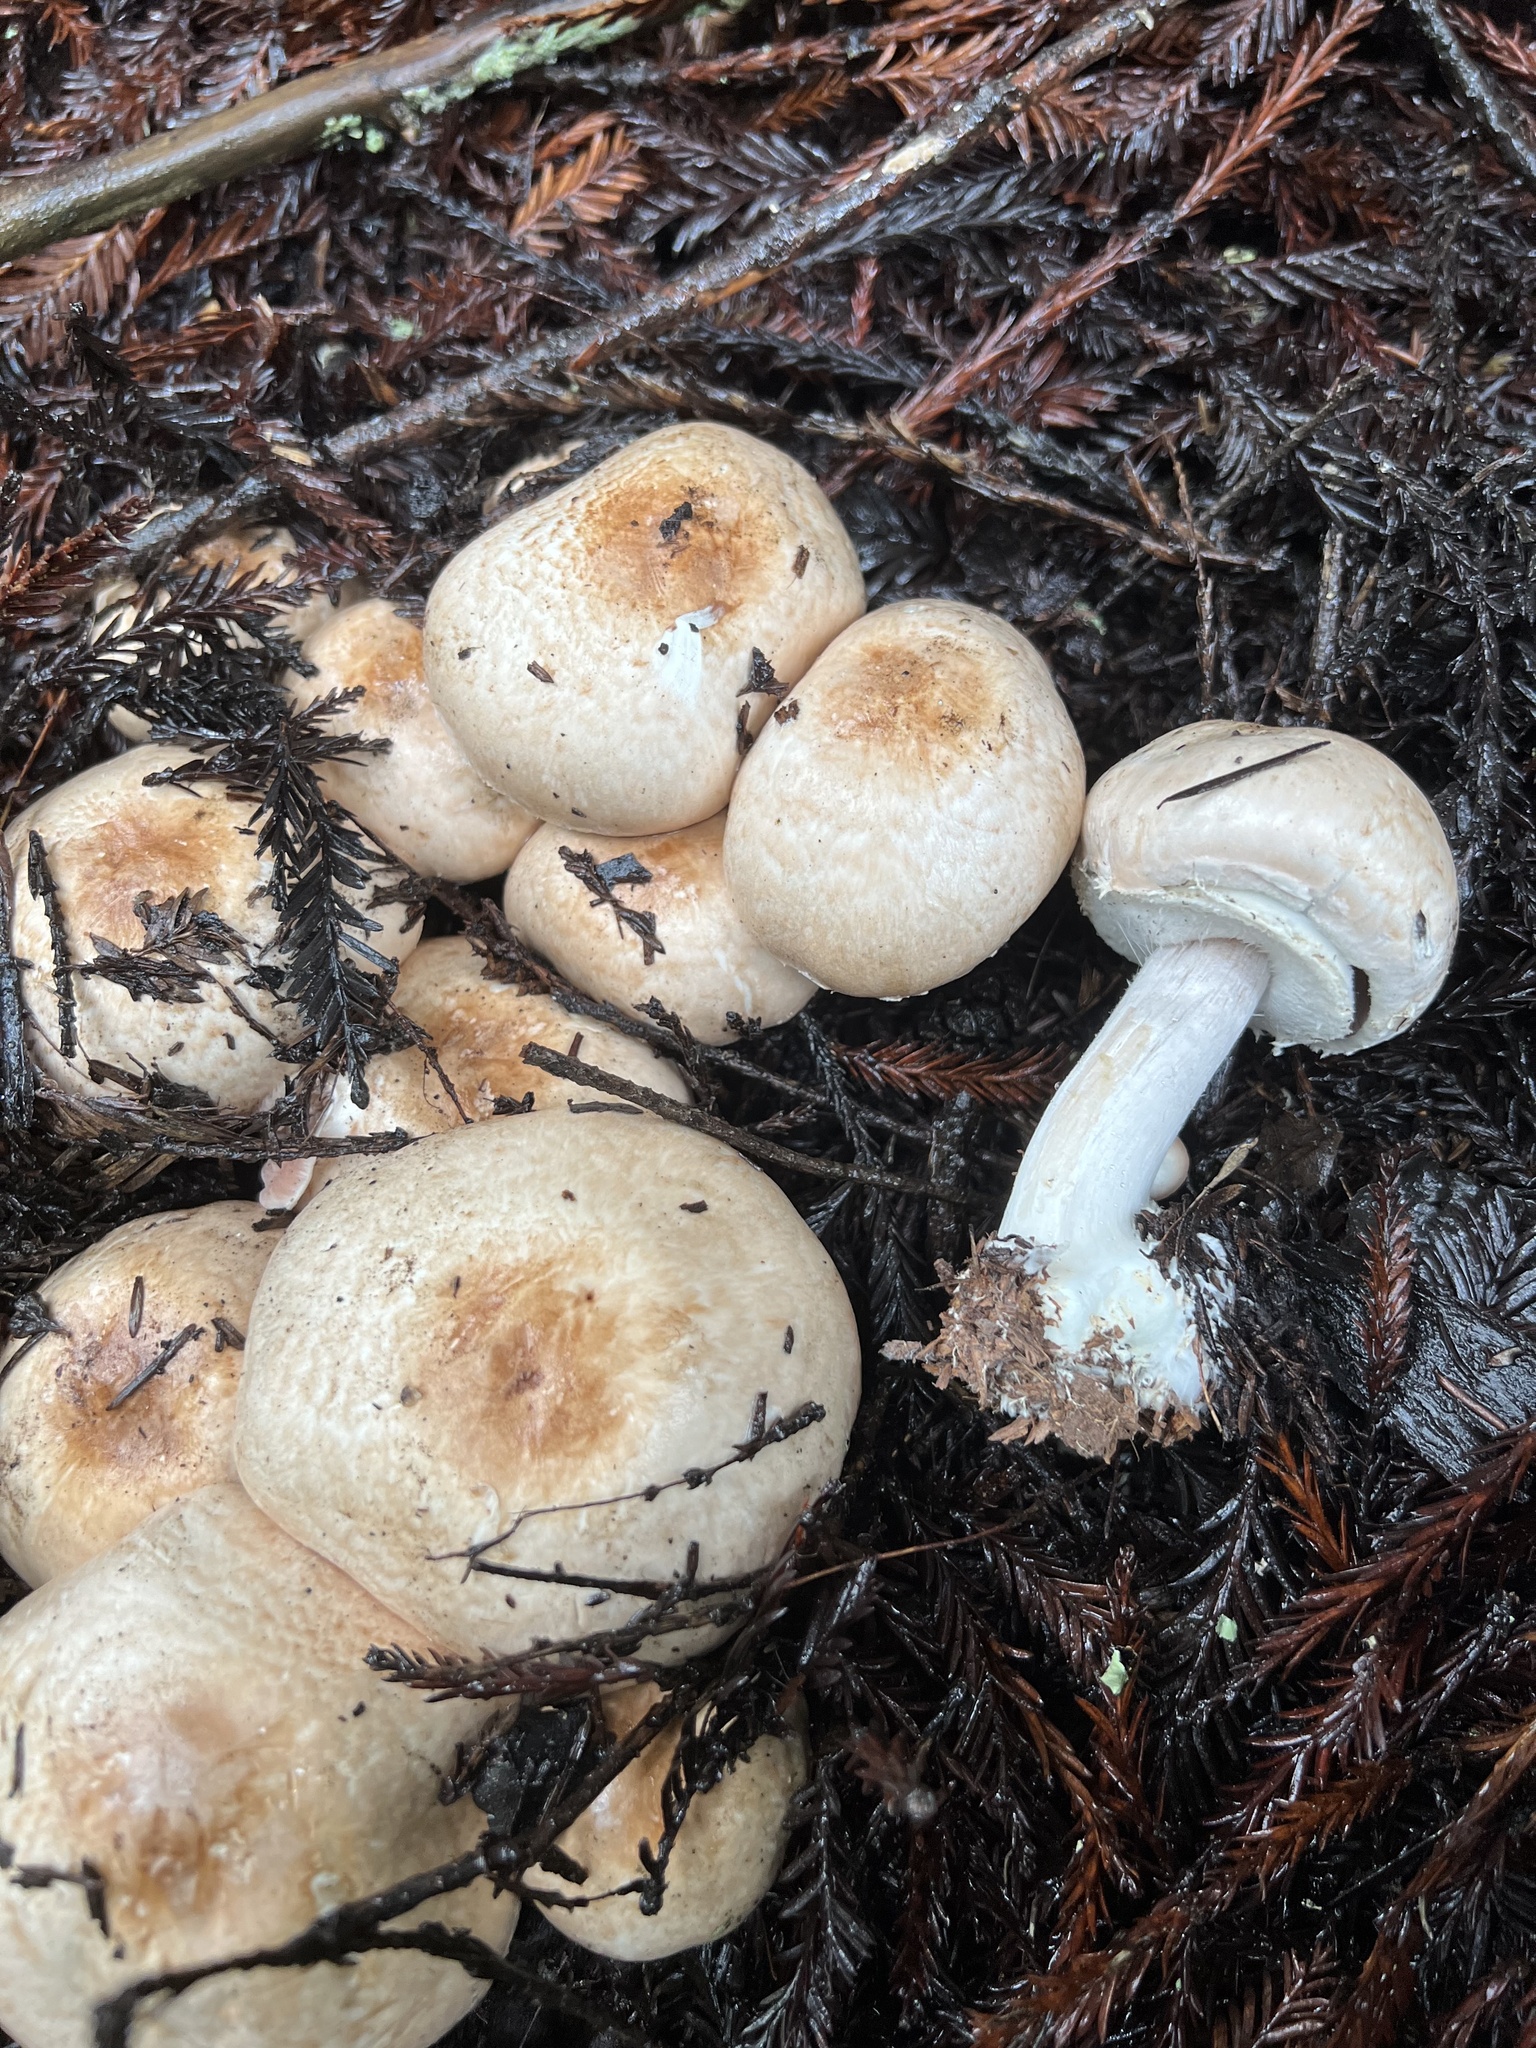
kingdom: Fungi
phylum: Basidiomycota
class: Agaricomycetes
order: Agaricales
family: Agaricaceae
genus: Agaricus
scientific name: Agaricus hondensis
